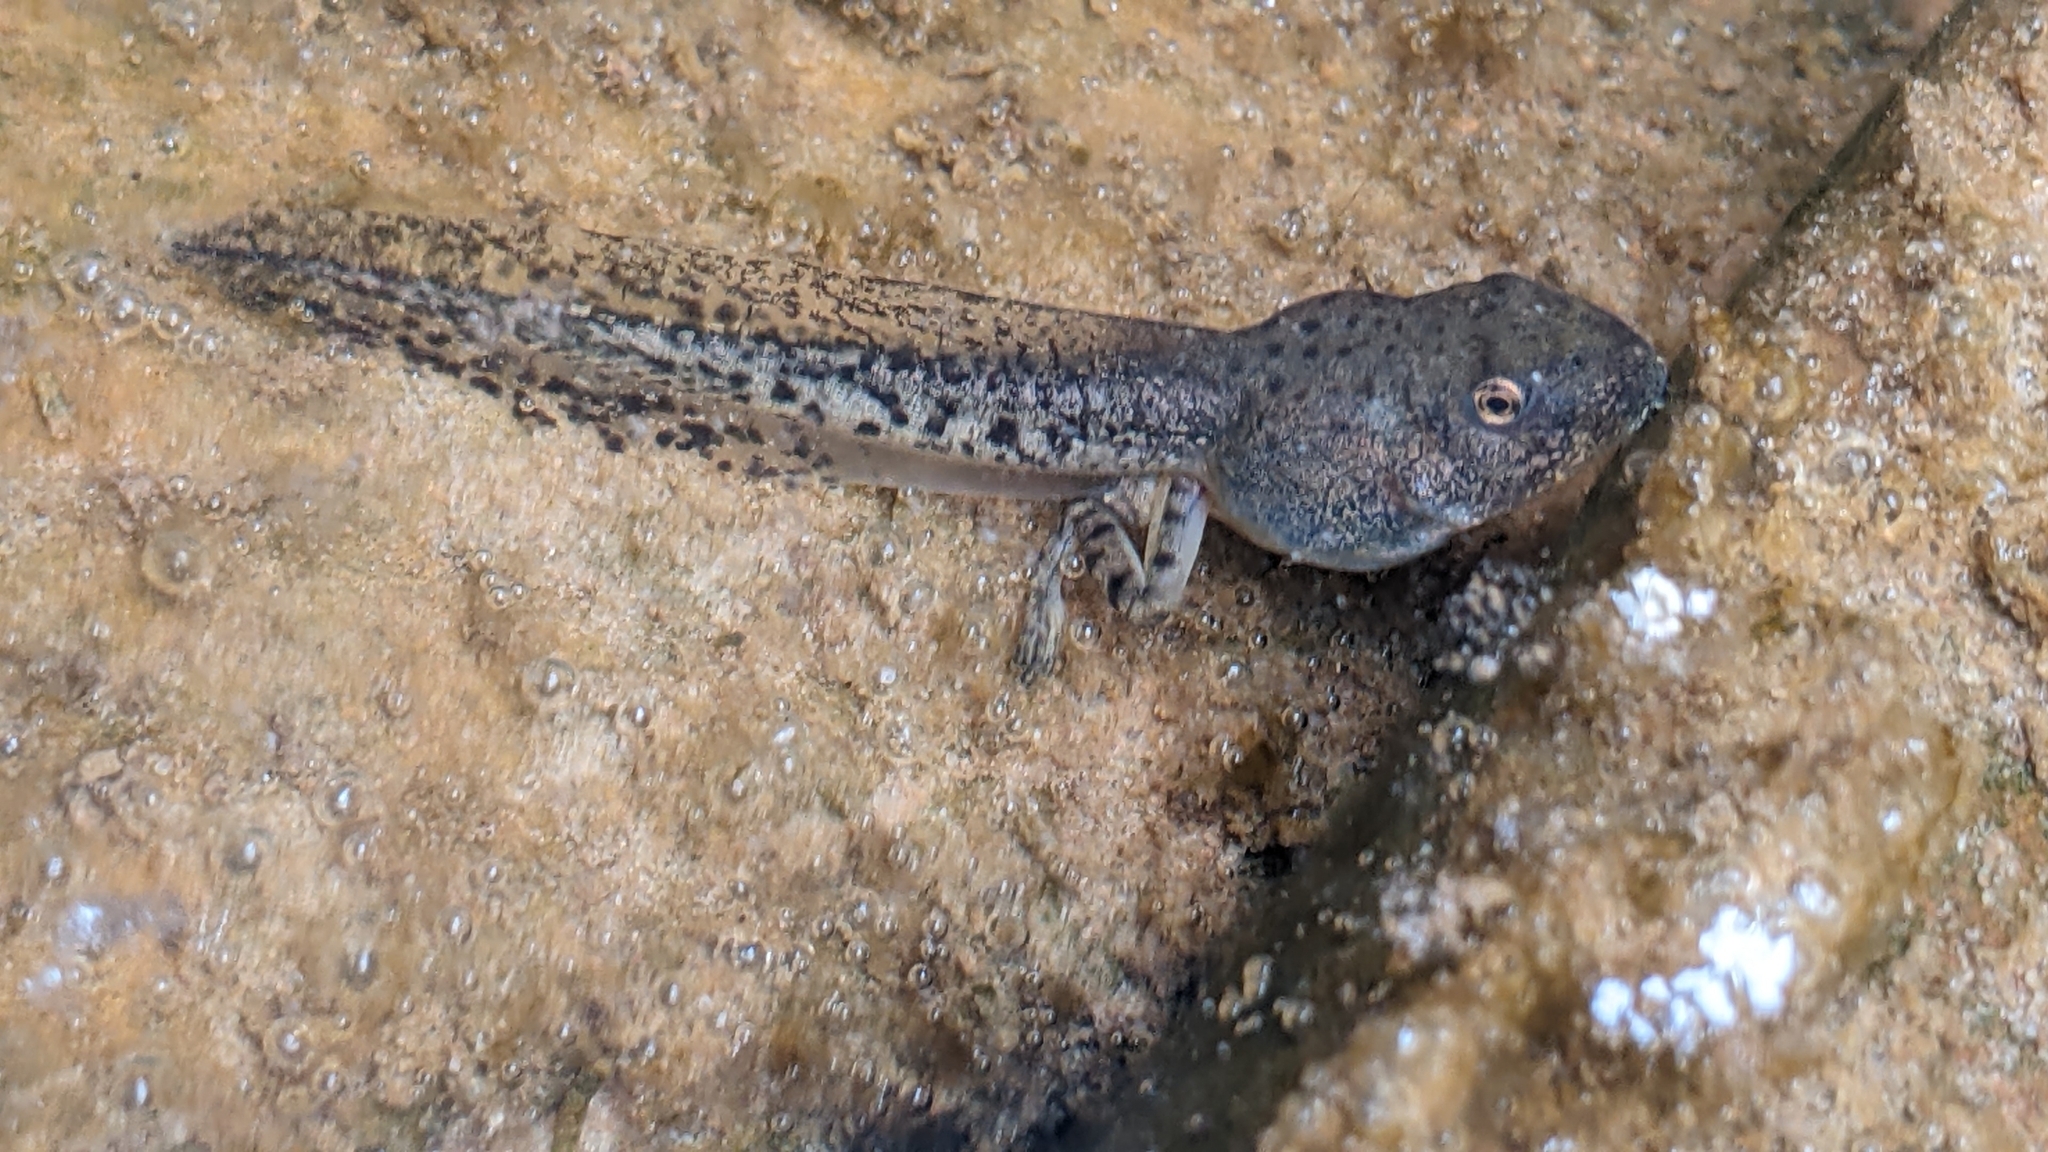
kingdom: Animalia
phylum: Chordata
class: Amphibia
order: Anura
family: Hylidae
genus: Dryophytes
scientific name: Dryophytes arenicolor
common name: Canyon treefrog
